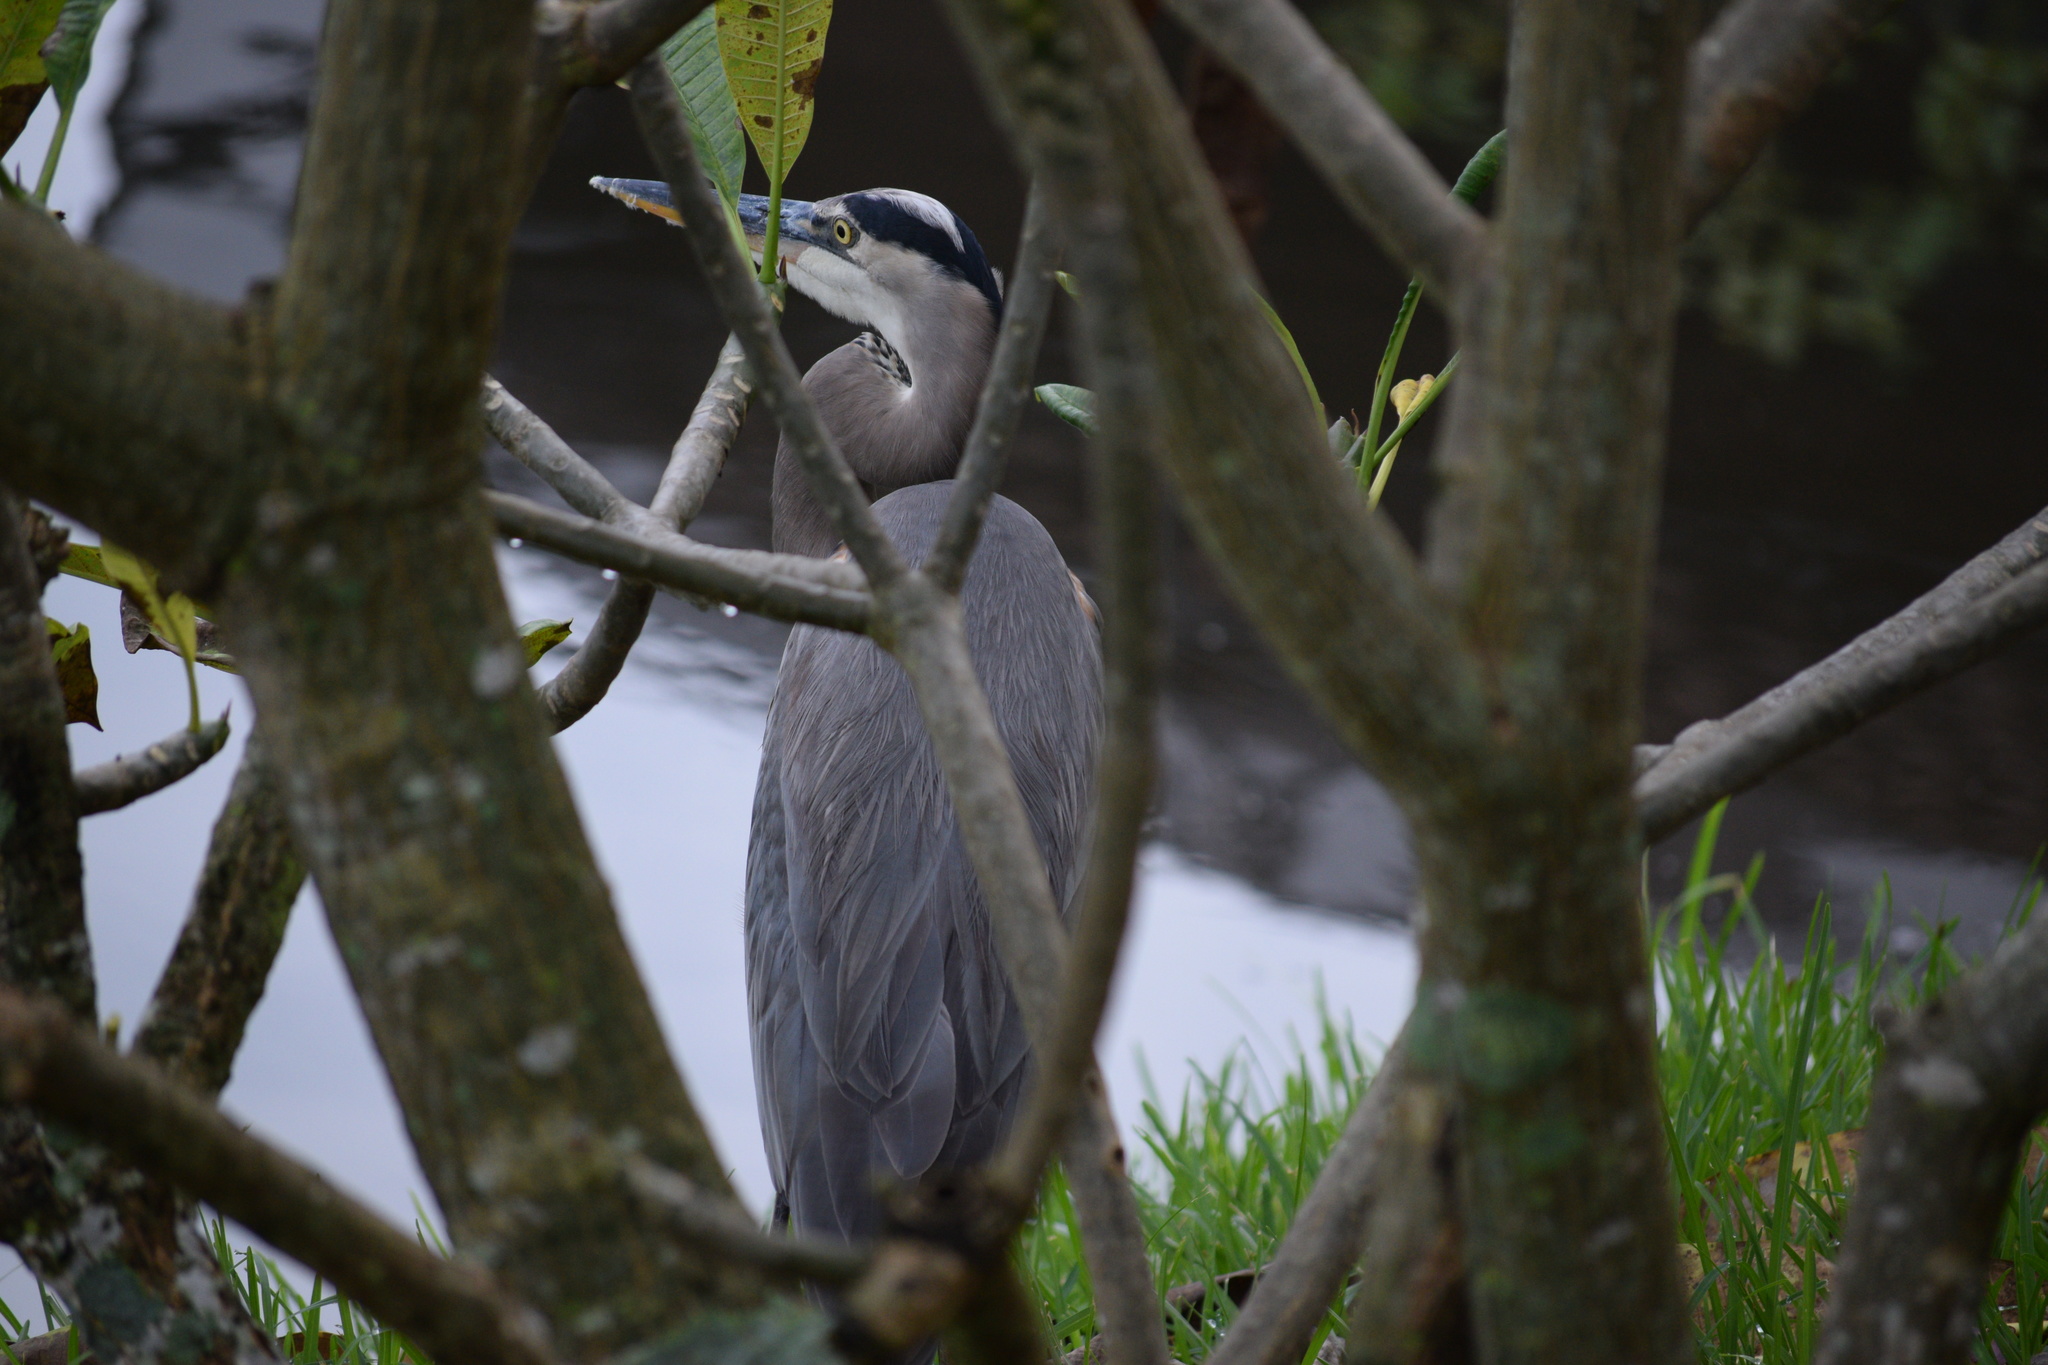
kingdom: Animalia
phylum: Chordata
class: Aves
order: Pelecaniformes
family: Ardeidae
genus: Ardea
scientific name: Ardea herodias
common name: Great blue heron
